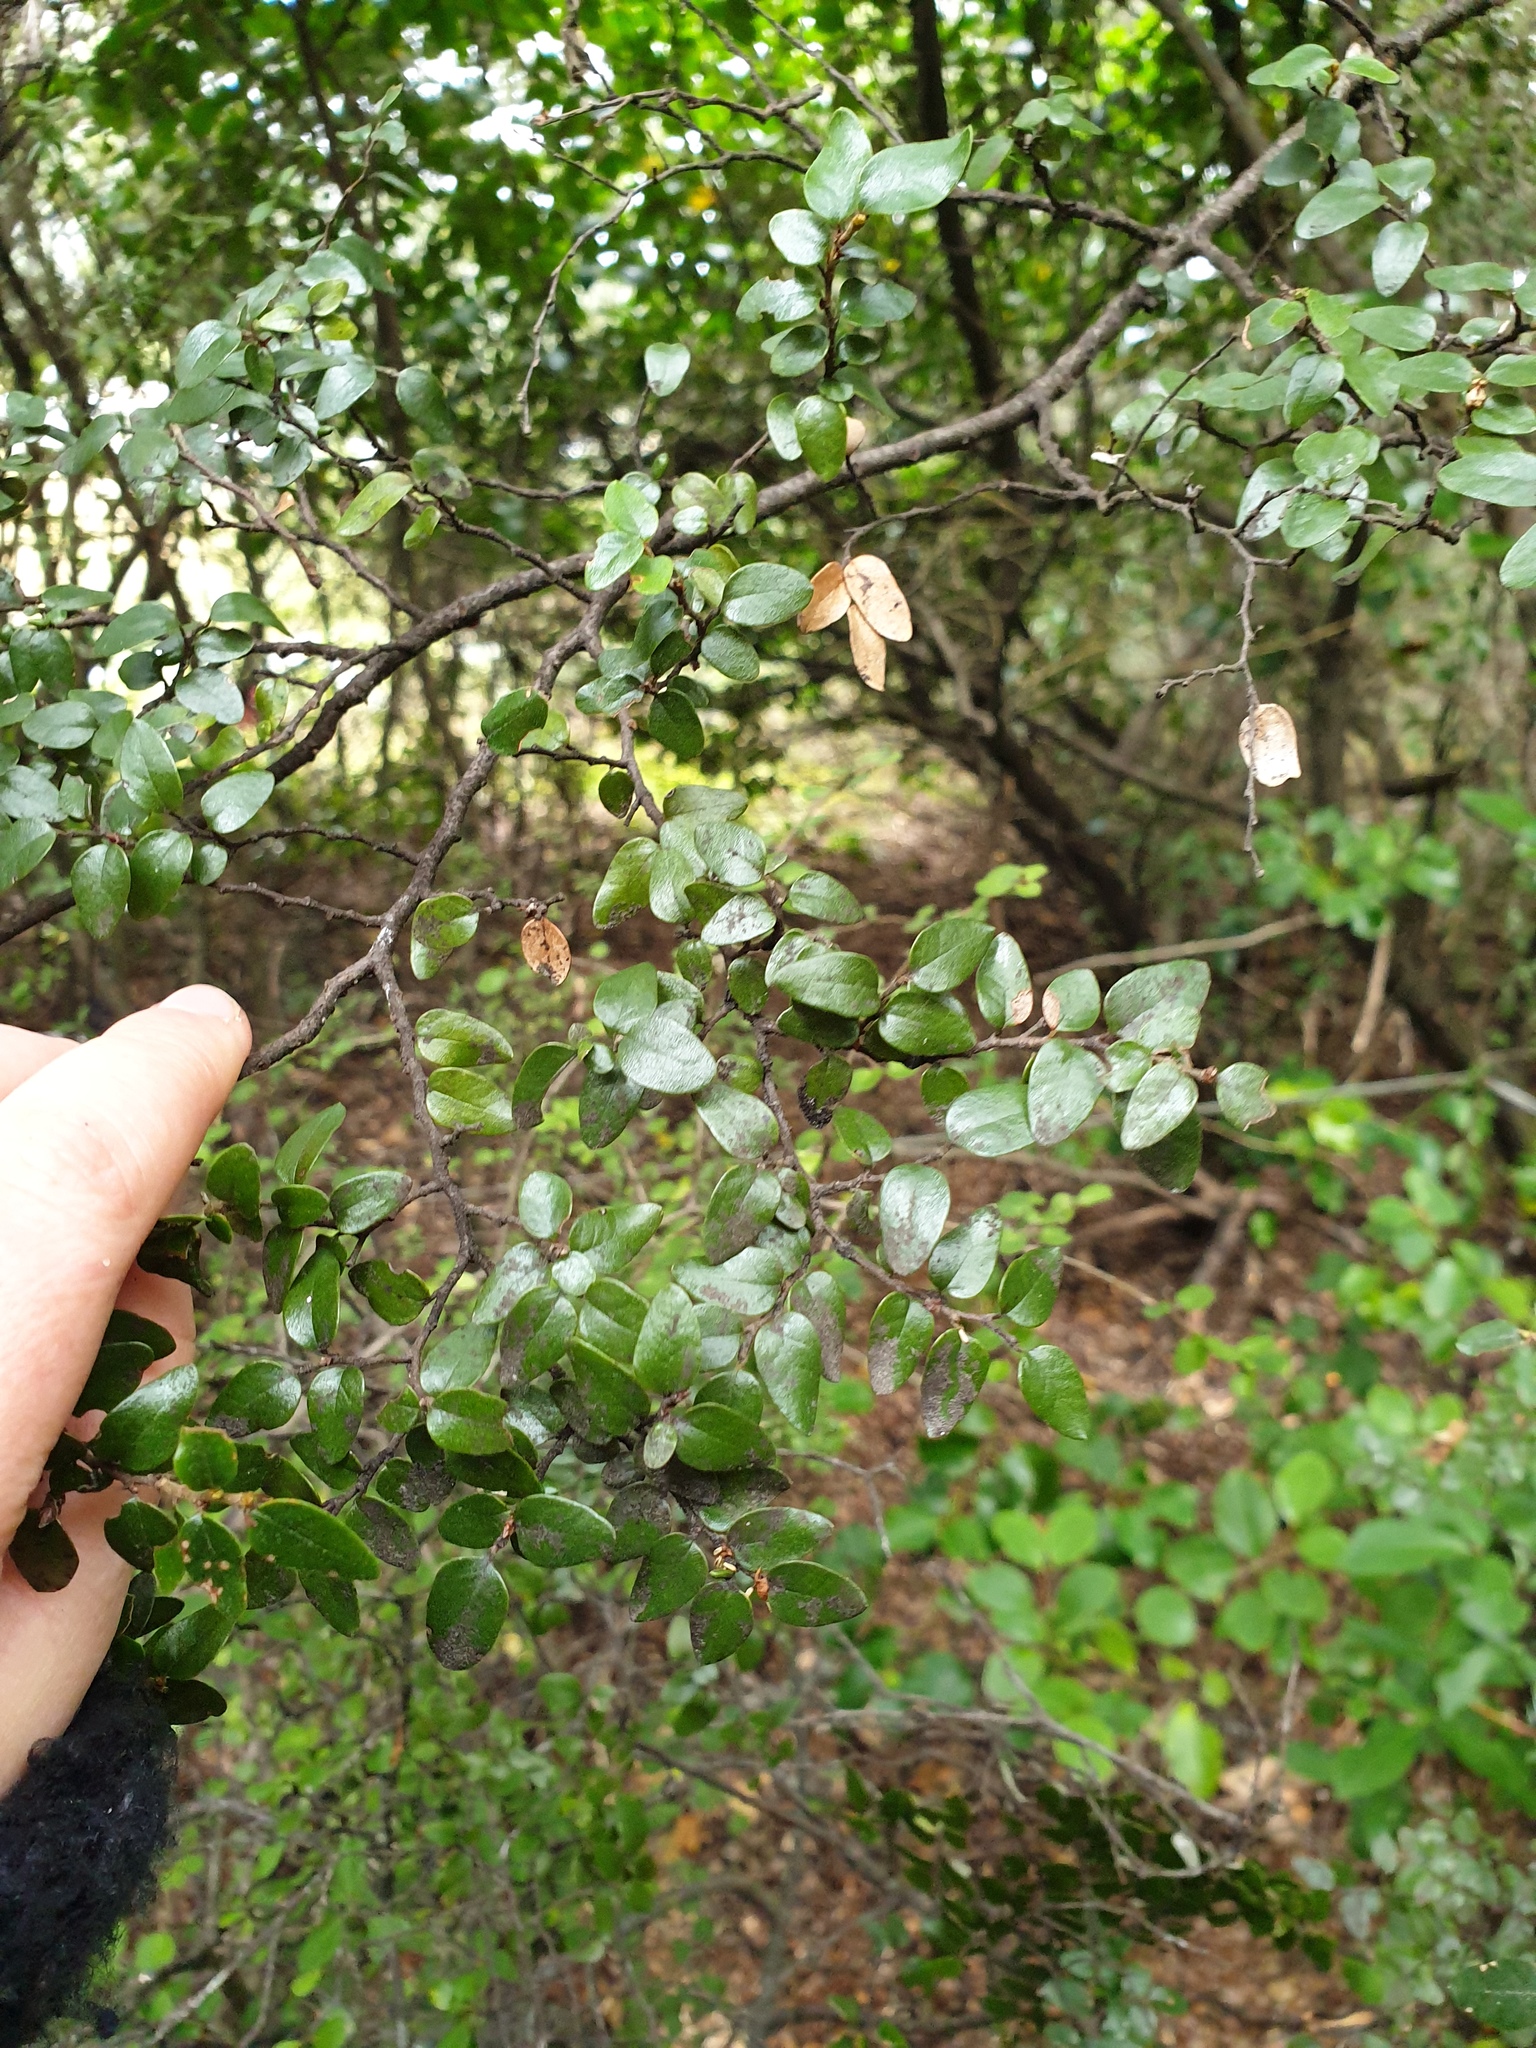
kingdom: Plantae
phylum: Tracheophyta
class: Magnoliopsida
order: Fagales
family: Nothofagaceae
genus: Nothofagus
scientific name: Nothofagus cliffortioides
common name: Mountain beech
